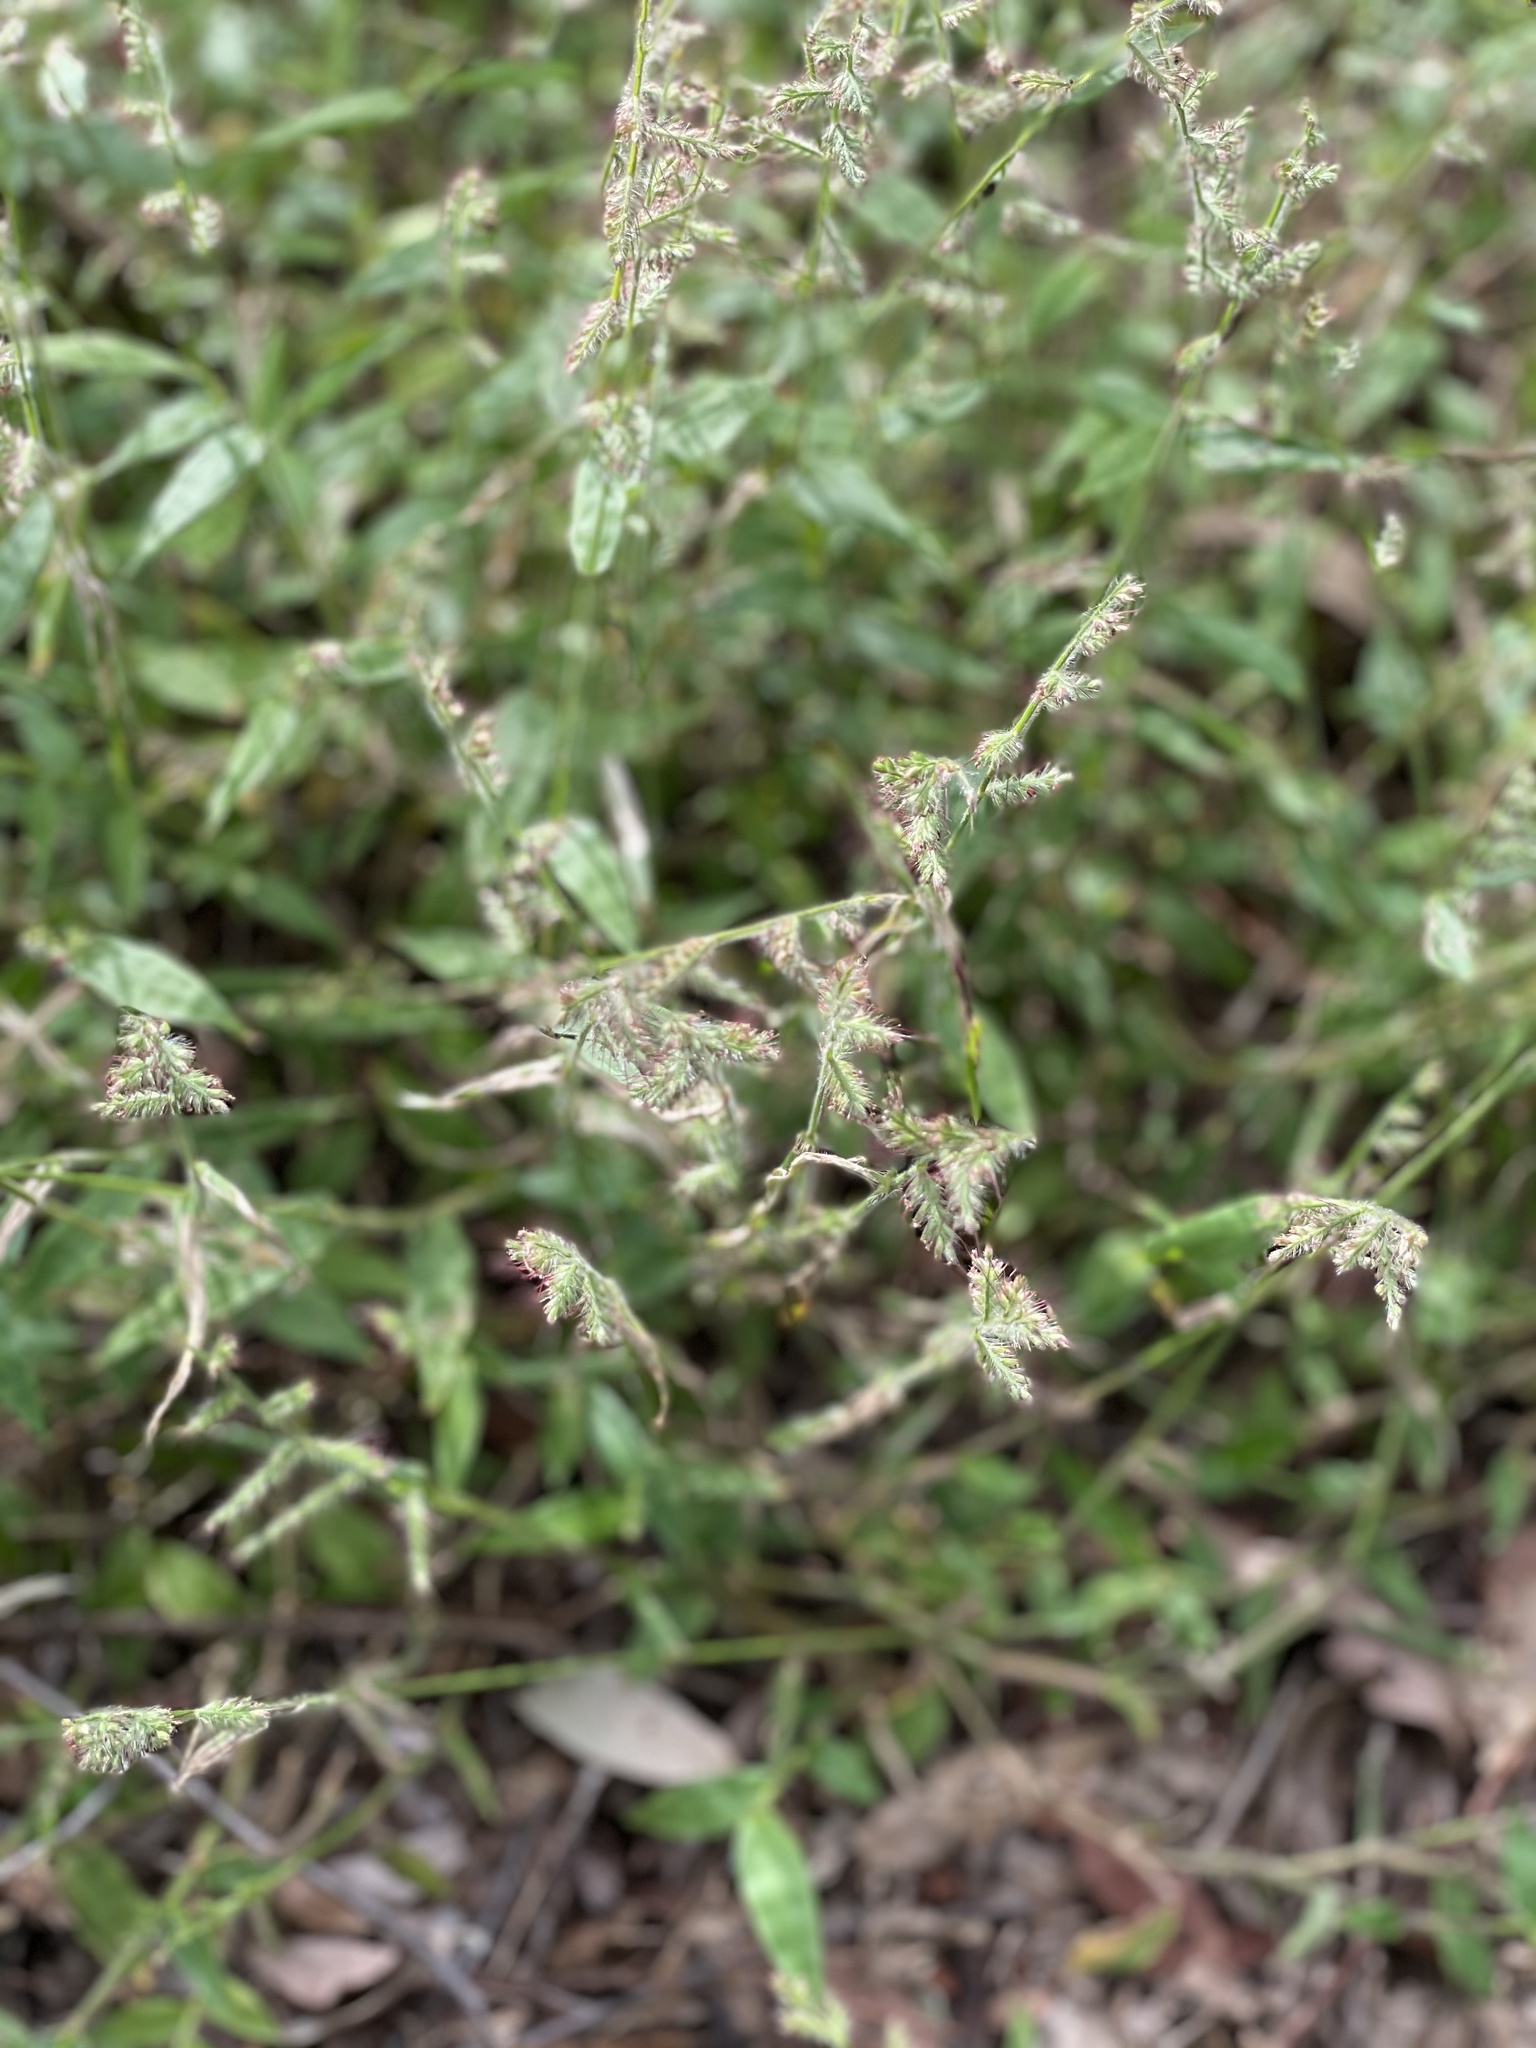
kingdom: Plantae
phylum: Tracheophyta
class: Liliopsida
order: Poales
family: Poaceae
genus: Oplismenus
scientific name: Oplismenus hirtellus
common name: Basketgrass
